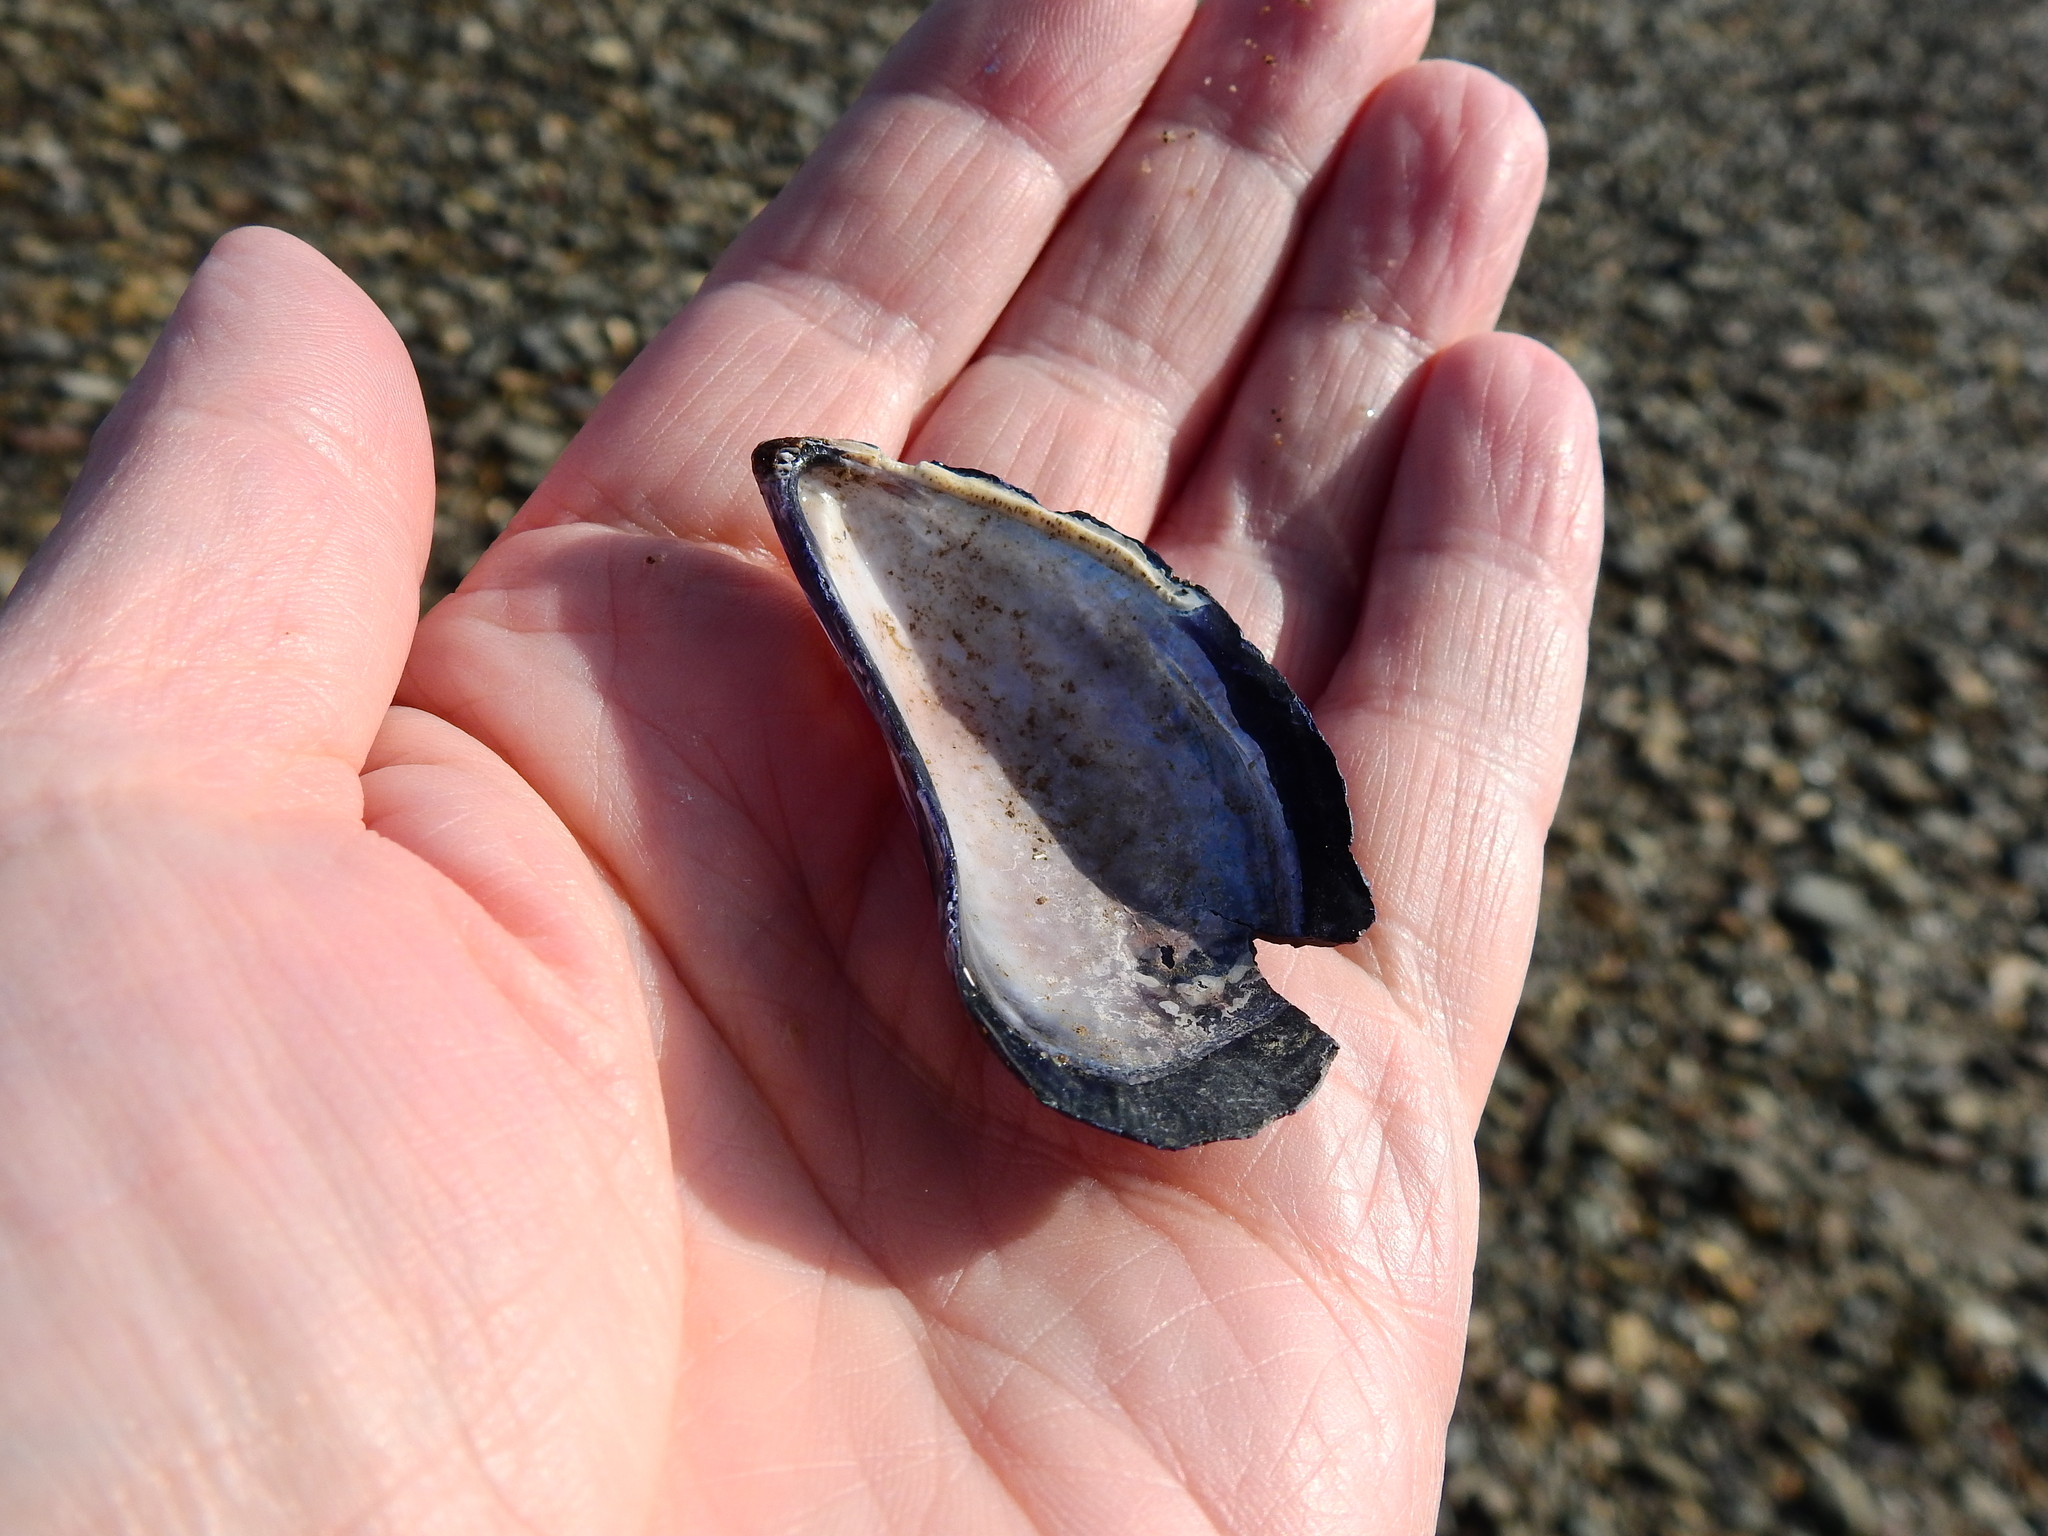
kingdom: Animalia
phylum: Mollusca
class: Bivalvia
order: Mytilida
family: Mytilidae
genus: Mytilus
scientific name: Mytilus edulis
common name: Blue mussel
